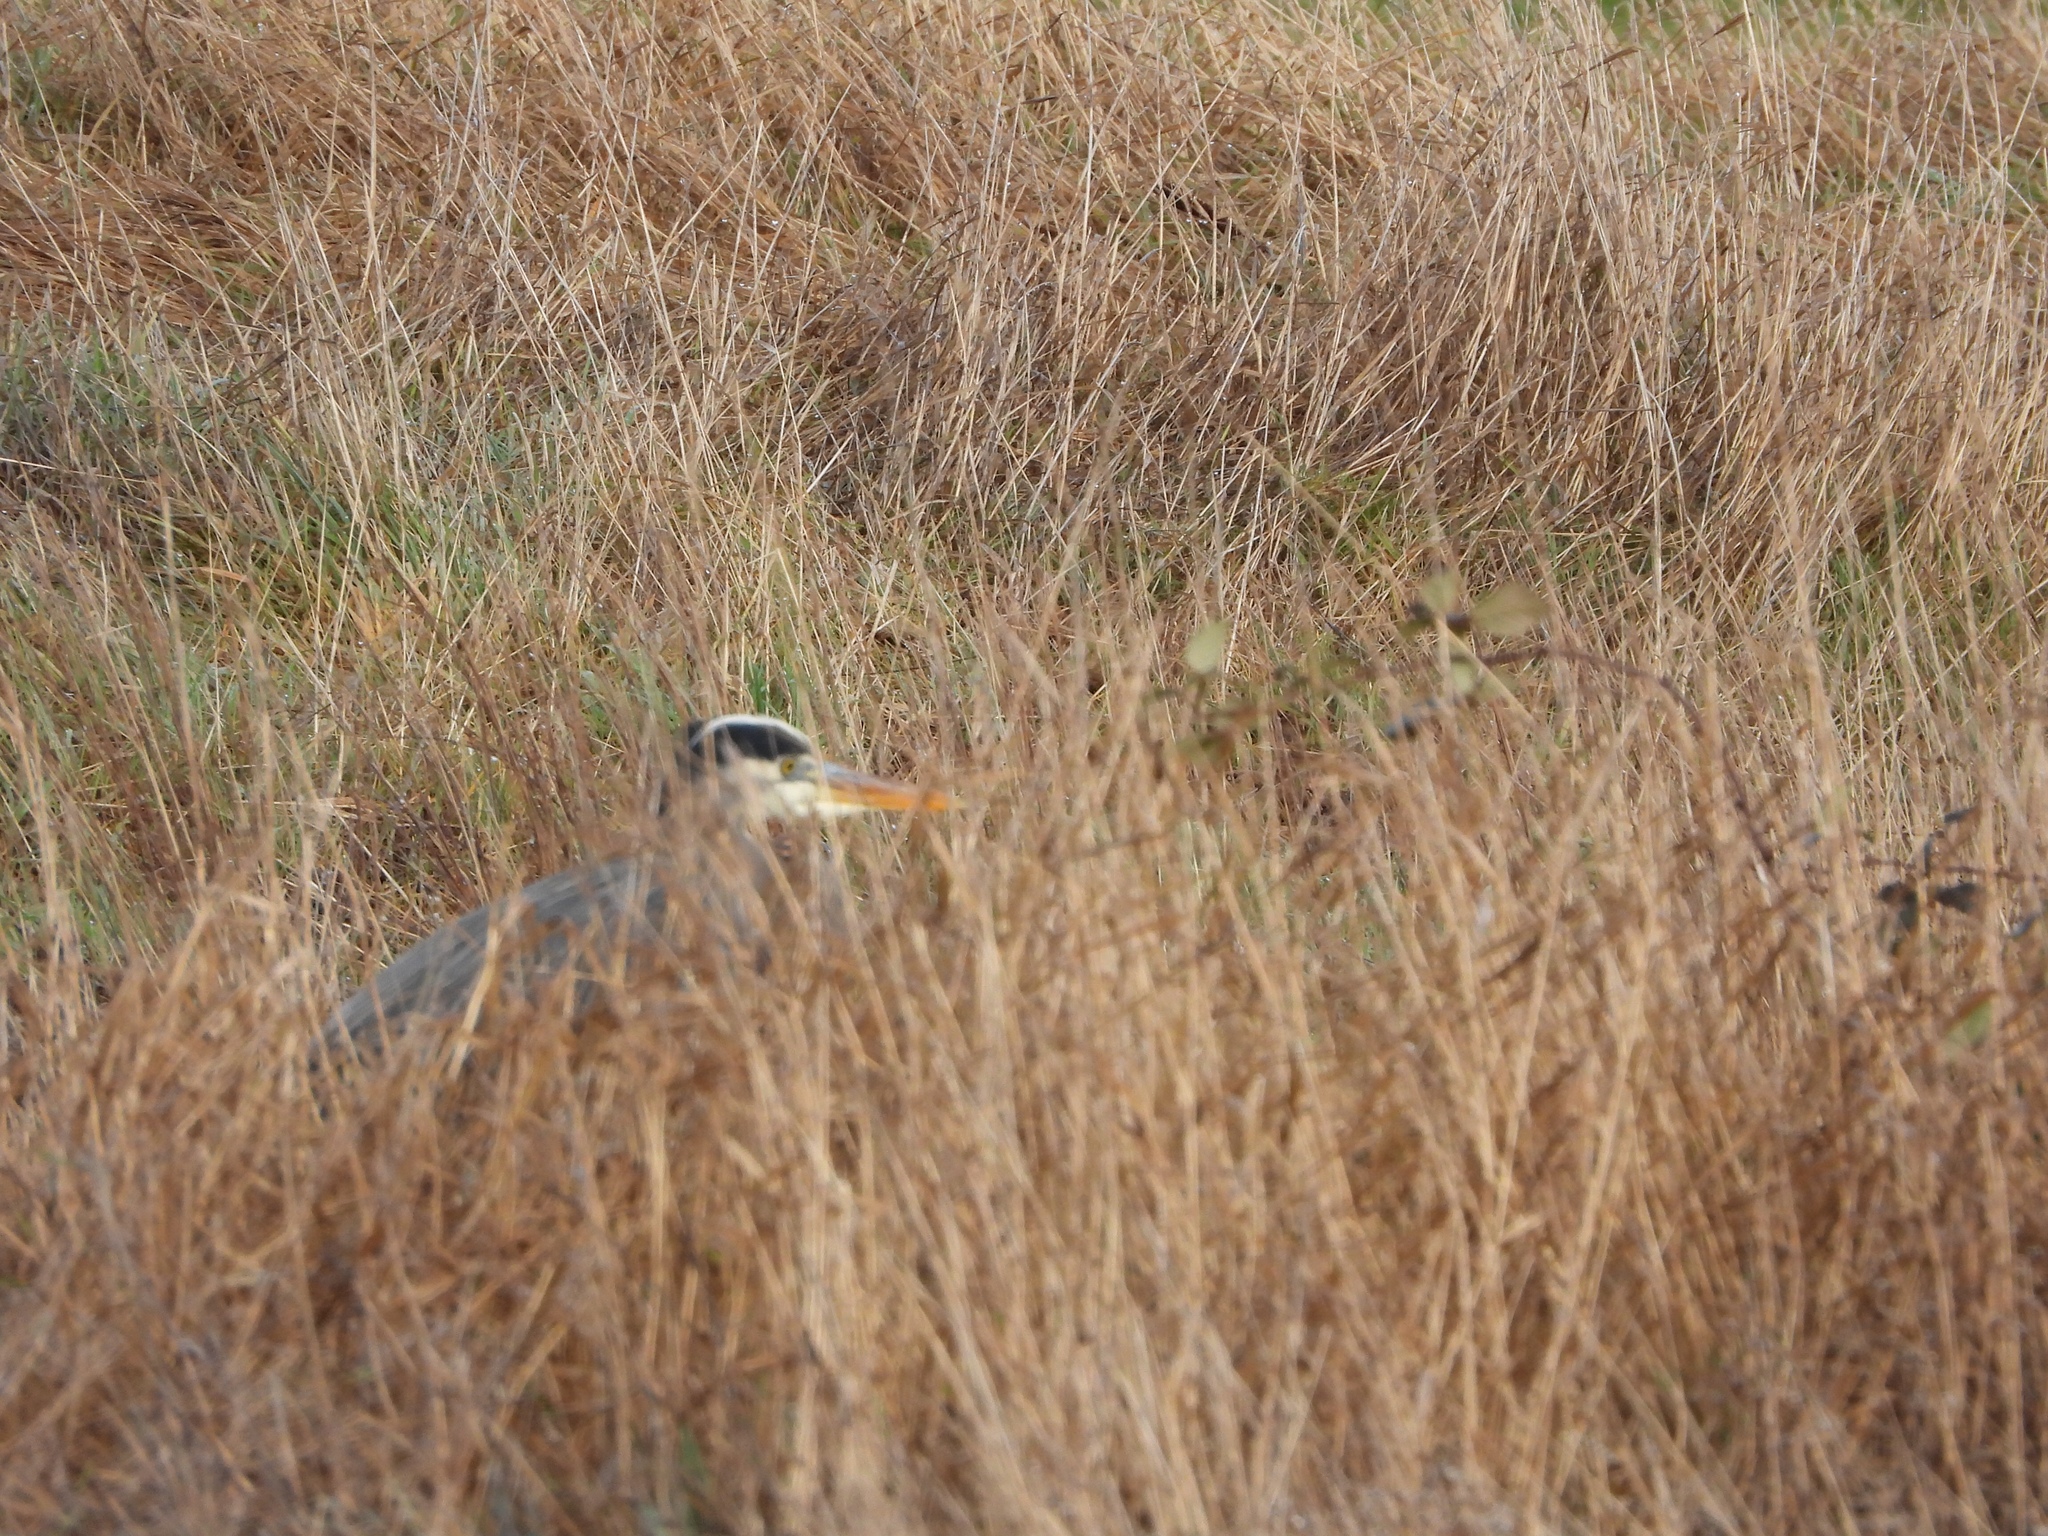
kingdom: Animalia
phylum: Chordata
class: Aves
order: Pelecaniformes
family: Ardeidae
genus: Ardea
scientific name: Ardea herodias
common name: Great blue heron
